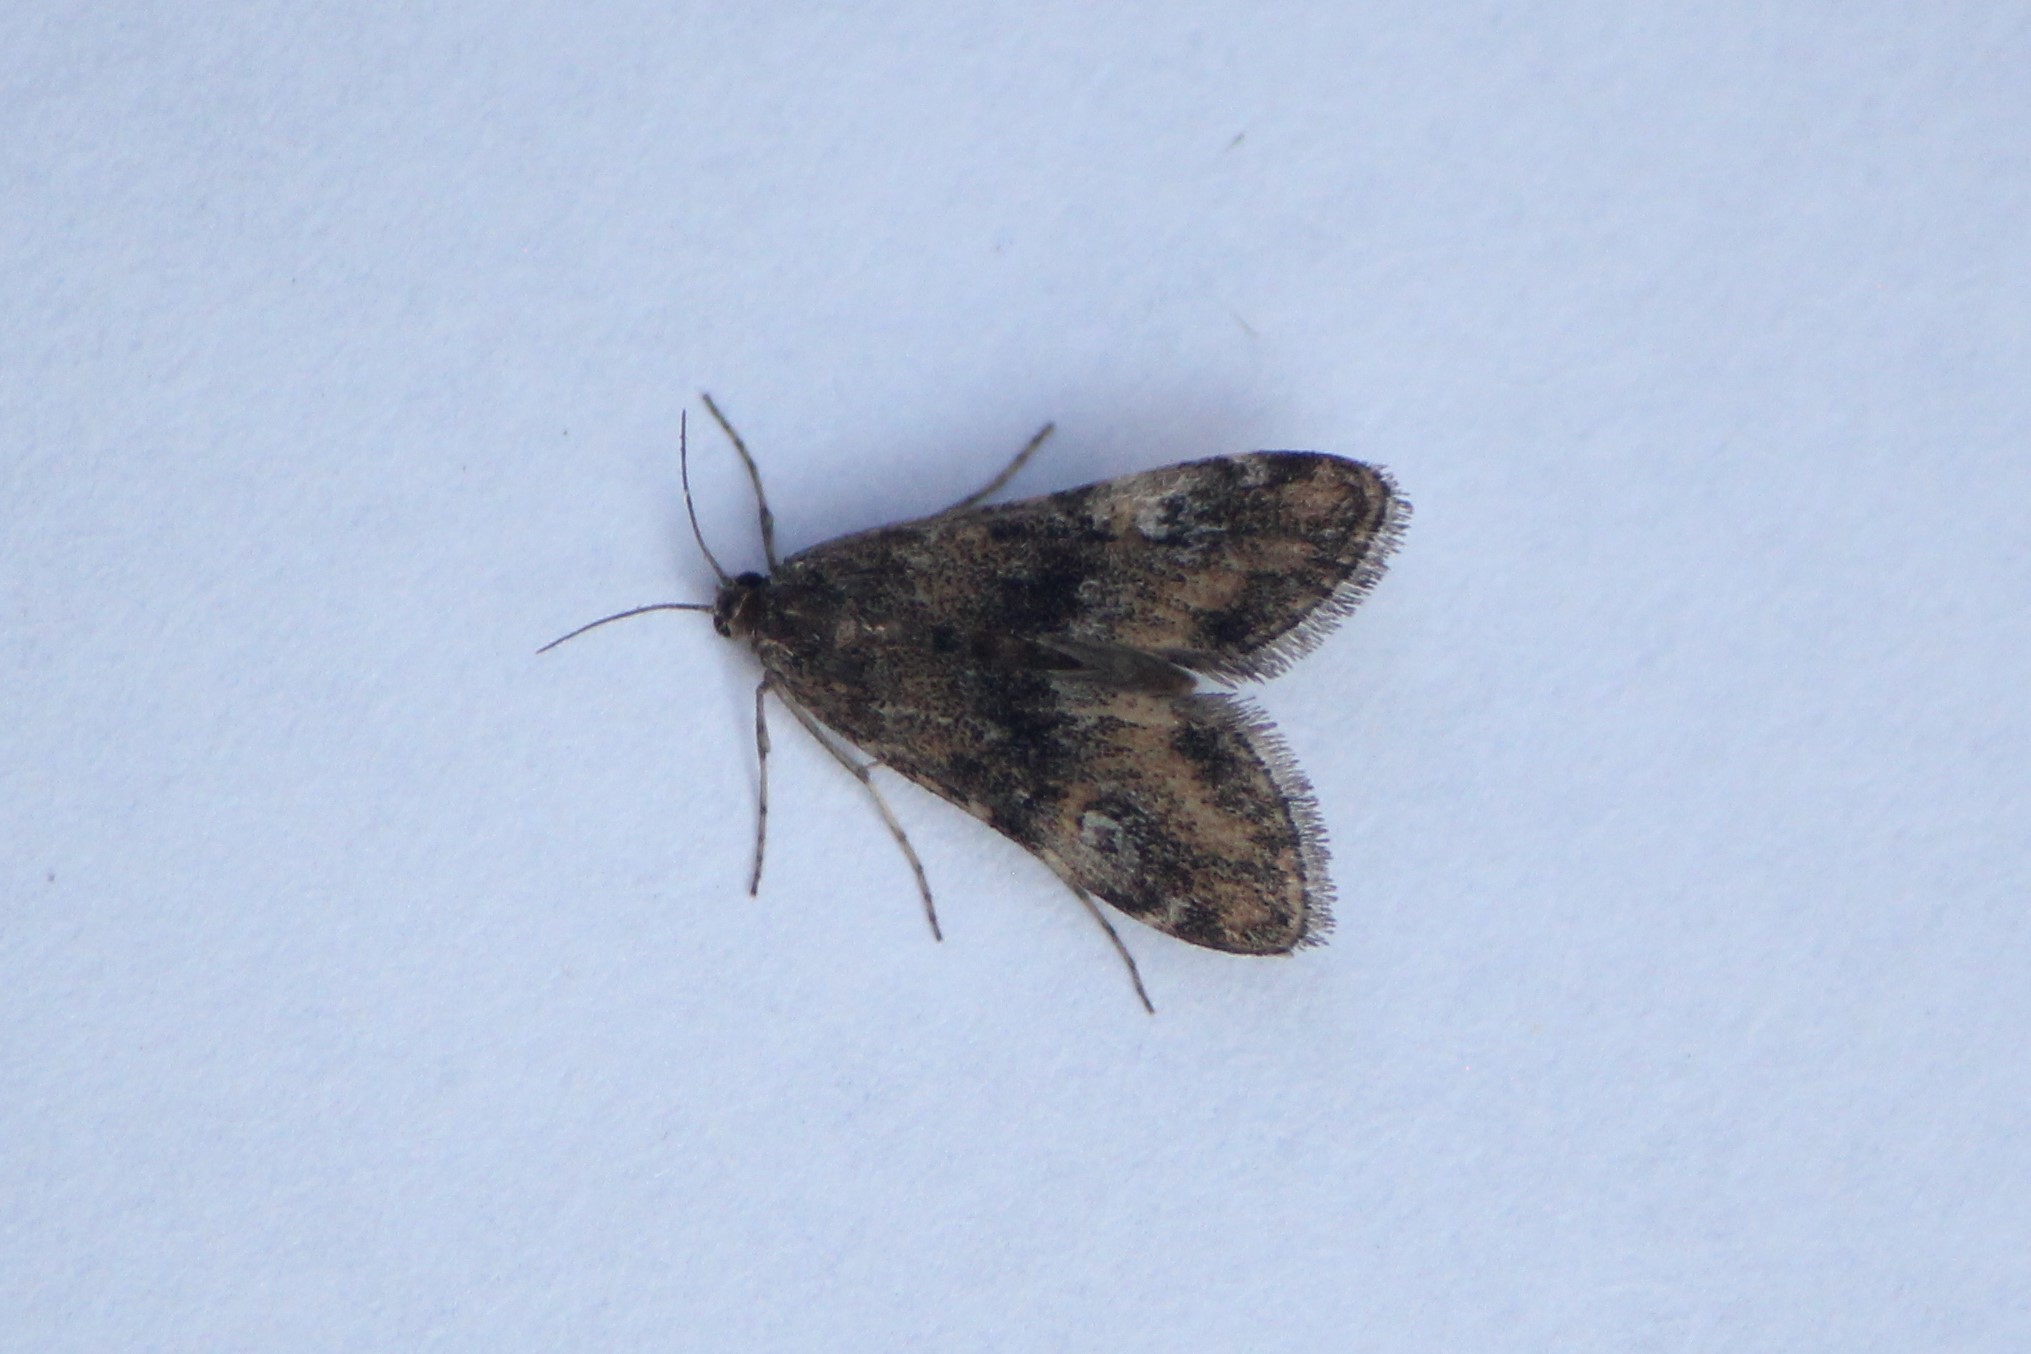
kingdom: Animalia
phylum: Arthropoda
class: Insecta
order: Lepidoptera
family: Crambidae
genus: Elophila
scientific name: Elophila obliteralis
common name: Waterlily leafcutter moth
